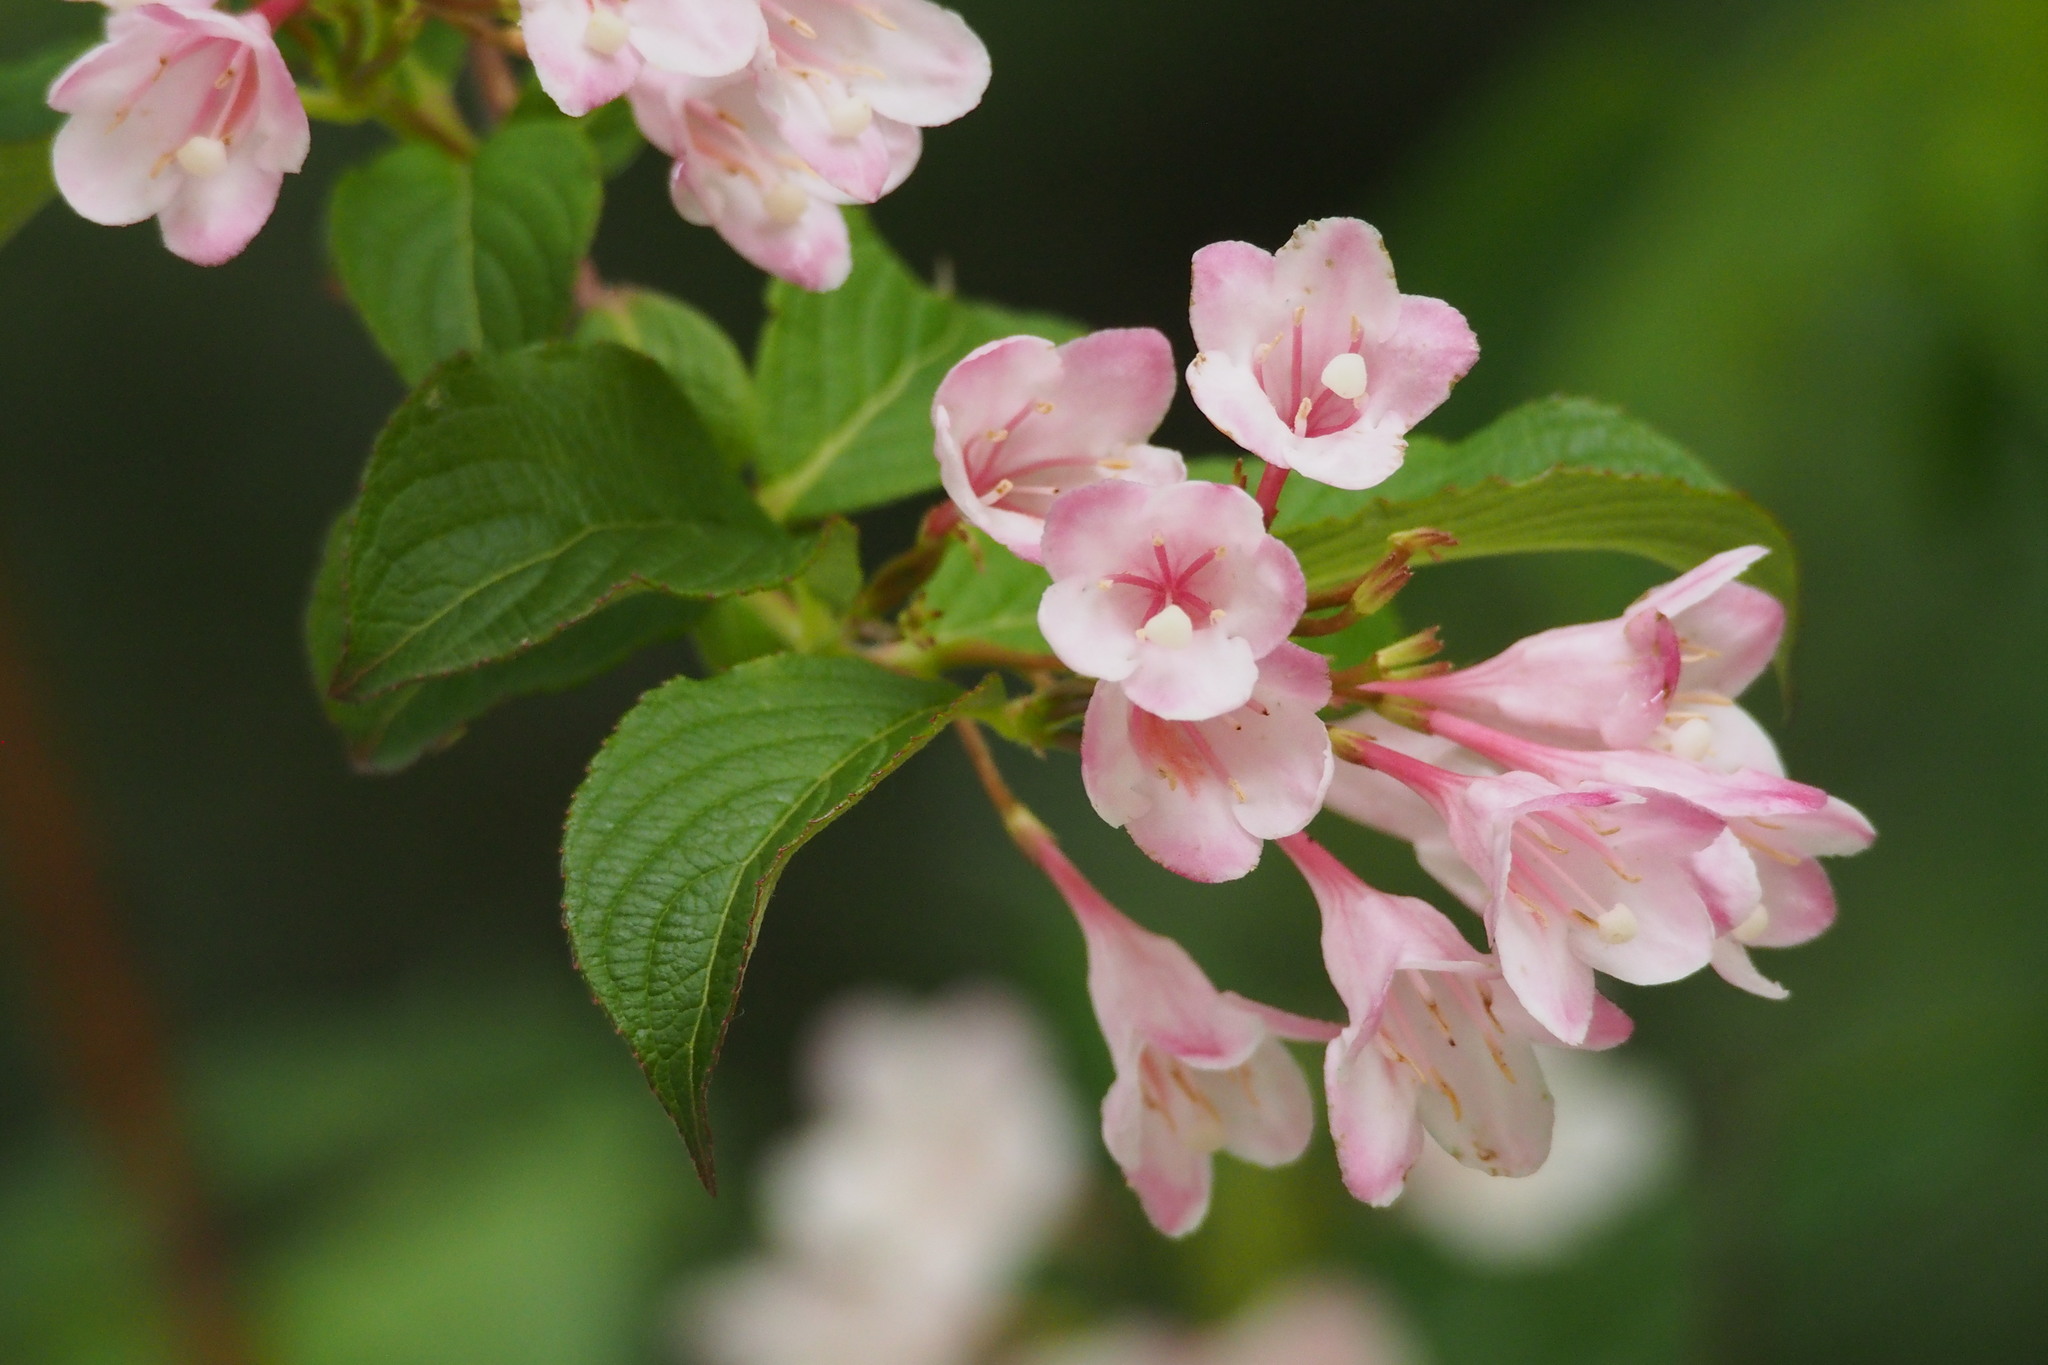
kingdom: Plantae
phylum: Tracheophyta
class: Magnoliopsida
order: Dipsacales
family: Caprifoliaceae
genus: Weigela
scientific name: Weigela hortensis
